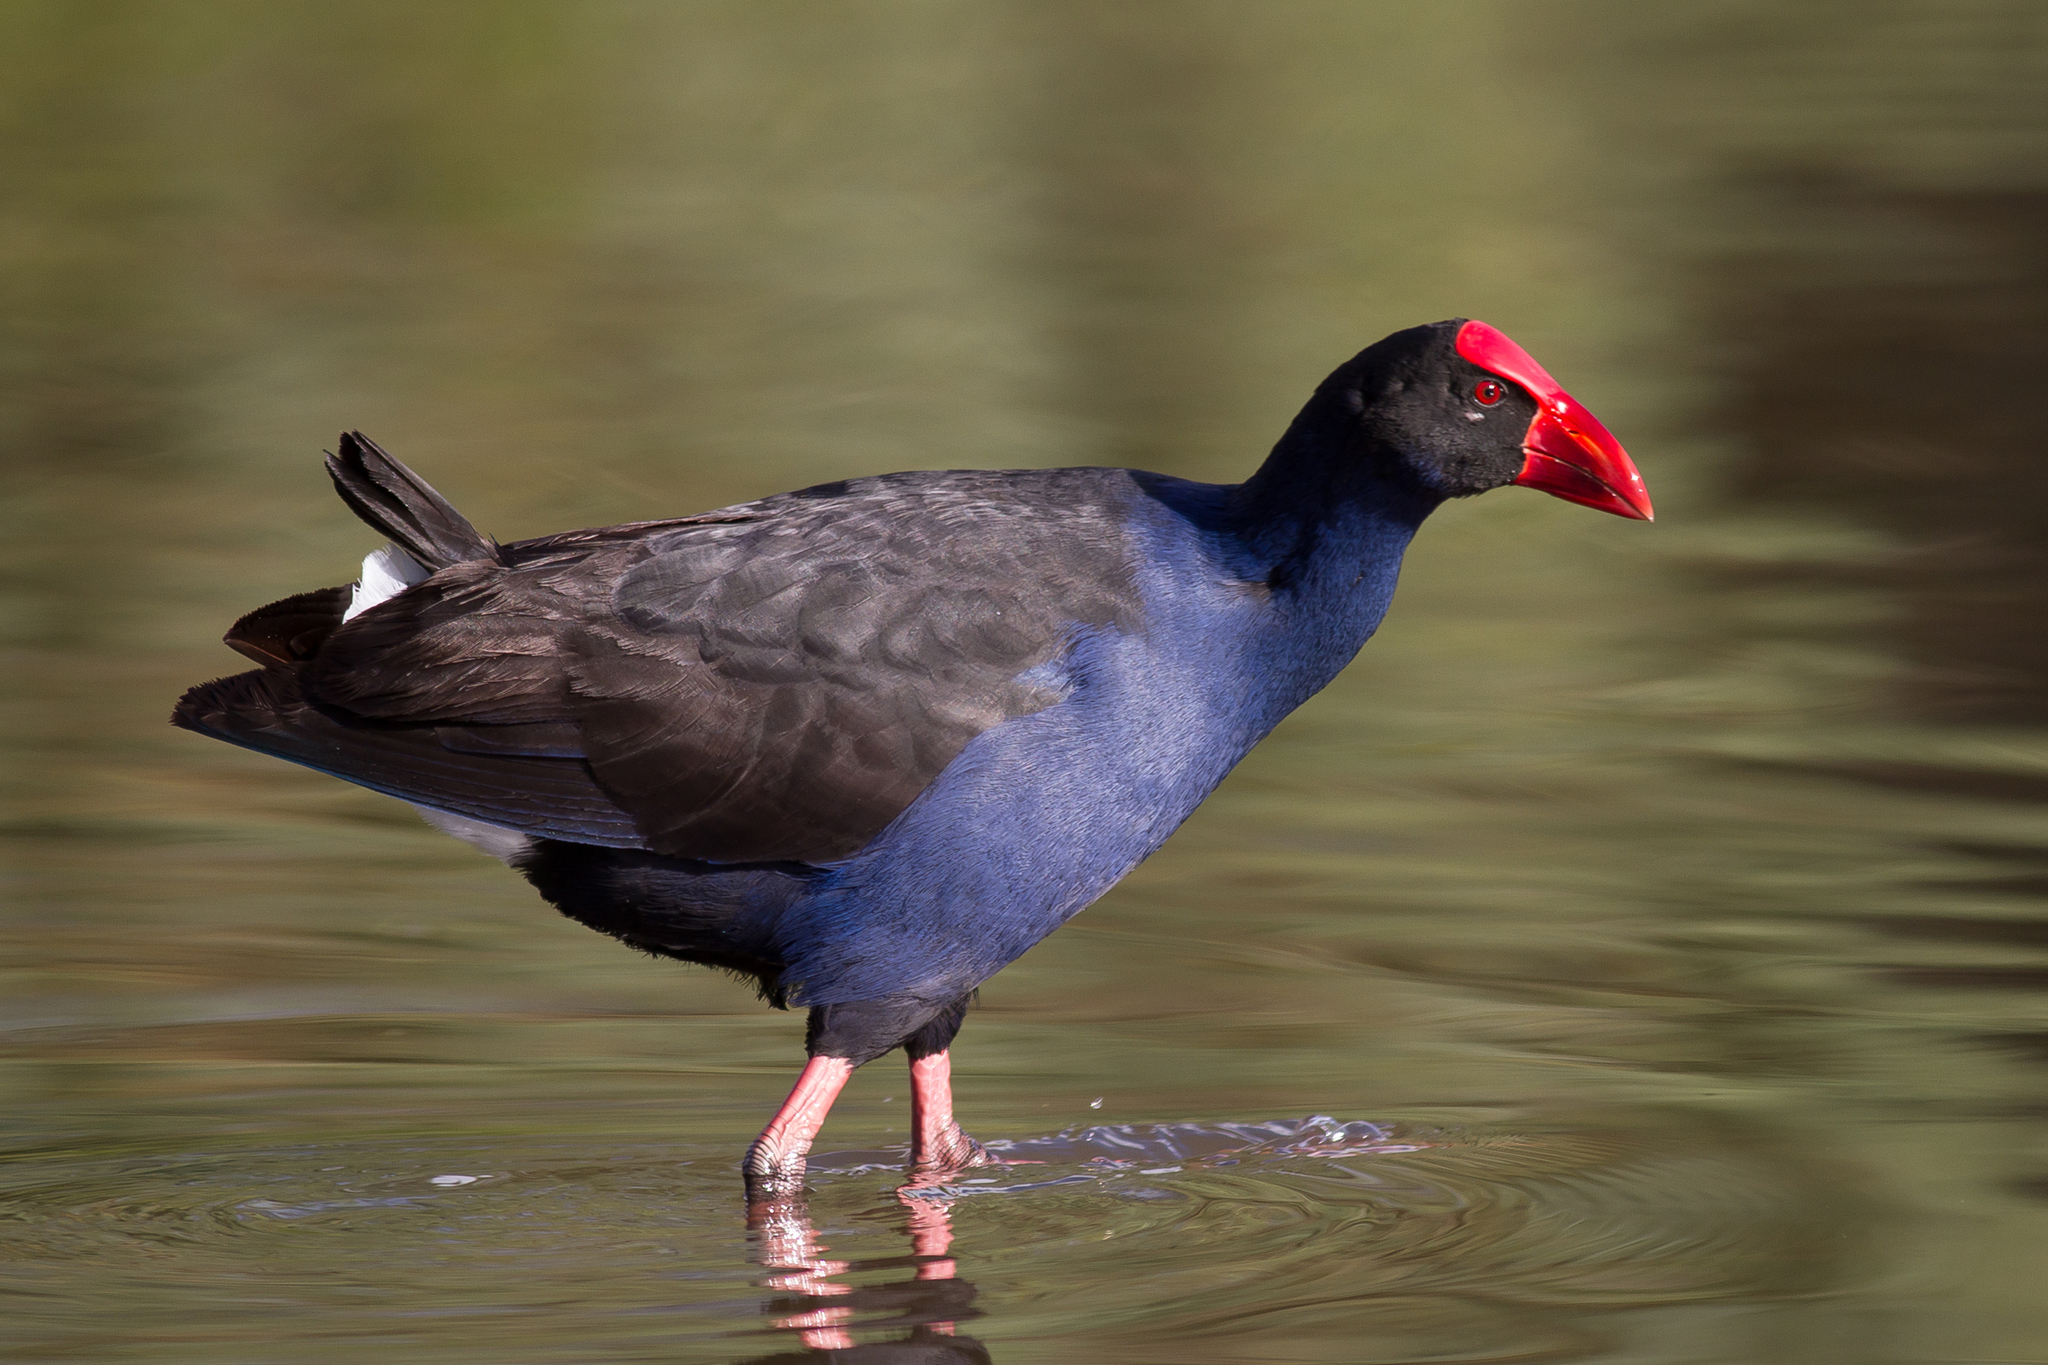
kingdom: Animalia
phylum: Chordata
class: Aves
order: Gruiformes
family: Rallidae
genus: Porphyrio
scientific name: Porphyrio melanotus
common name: Australasian swamphen
